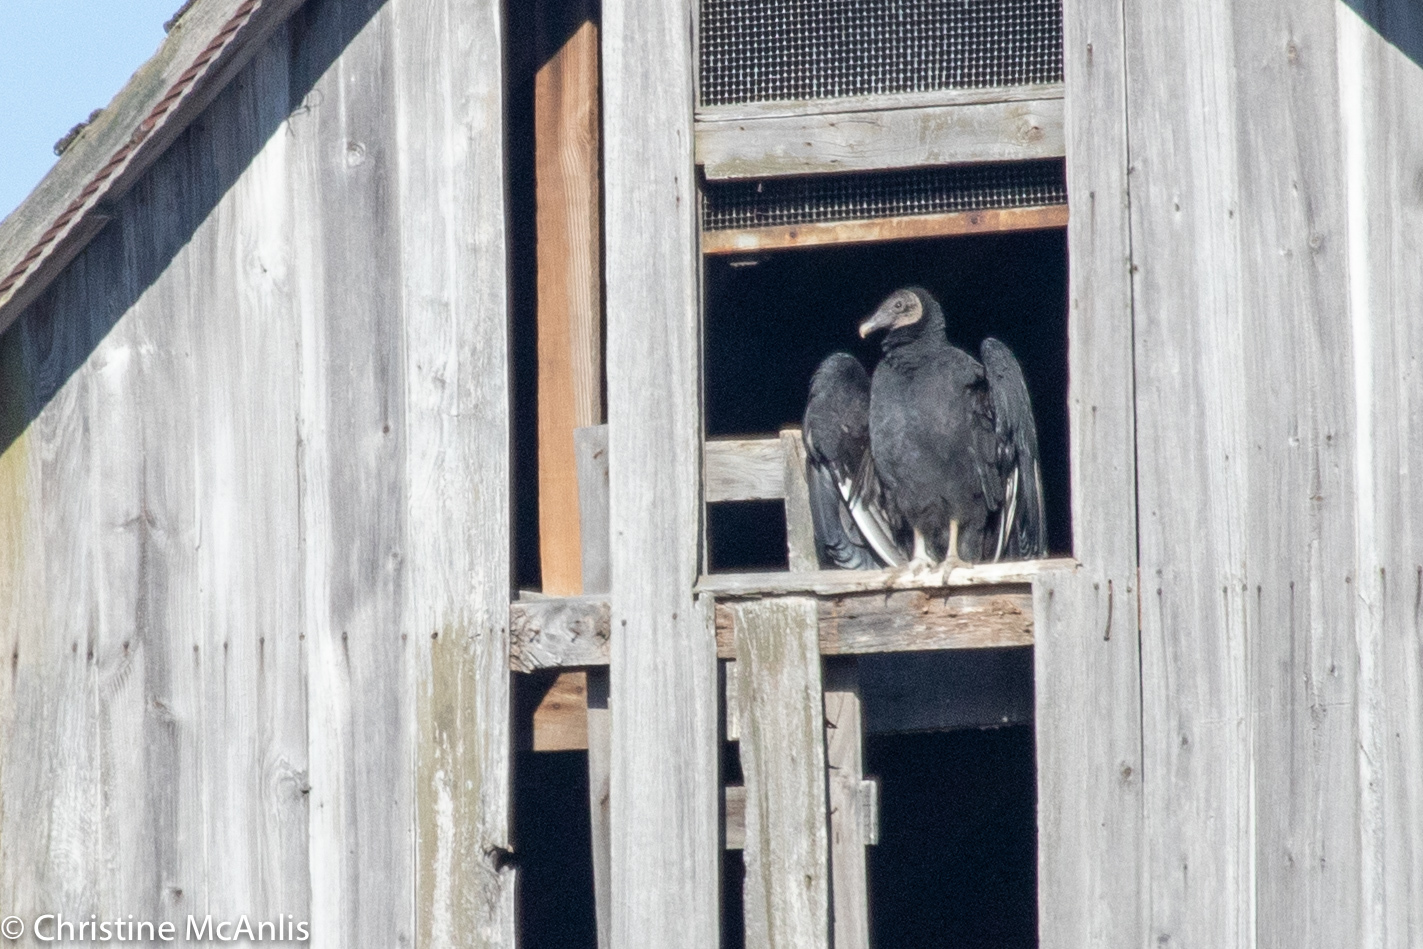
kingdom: Animalia
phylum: Chordata
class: Aves
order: Accipitriformes
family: Cathartidae
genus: Coragyps
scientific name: Coragyps atratus
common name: Black vulture
